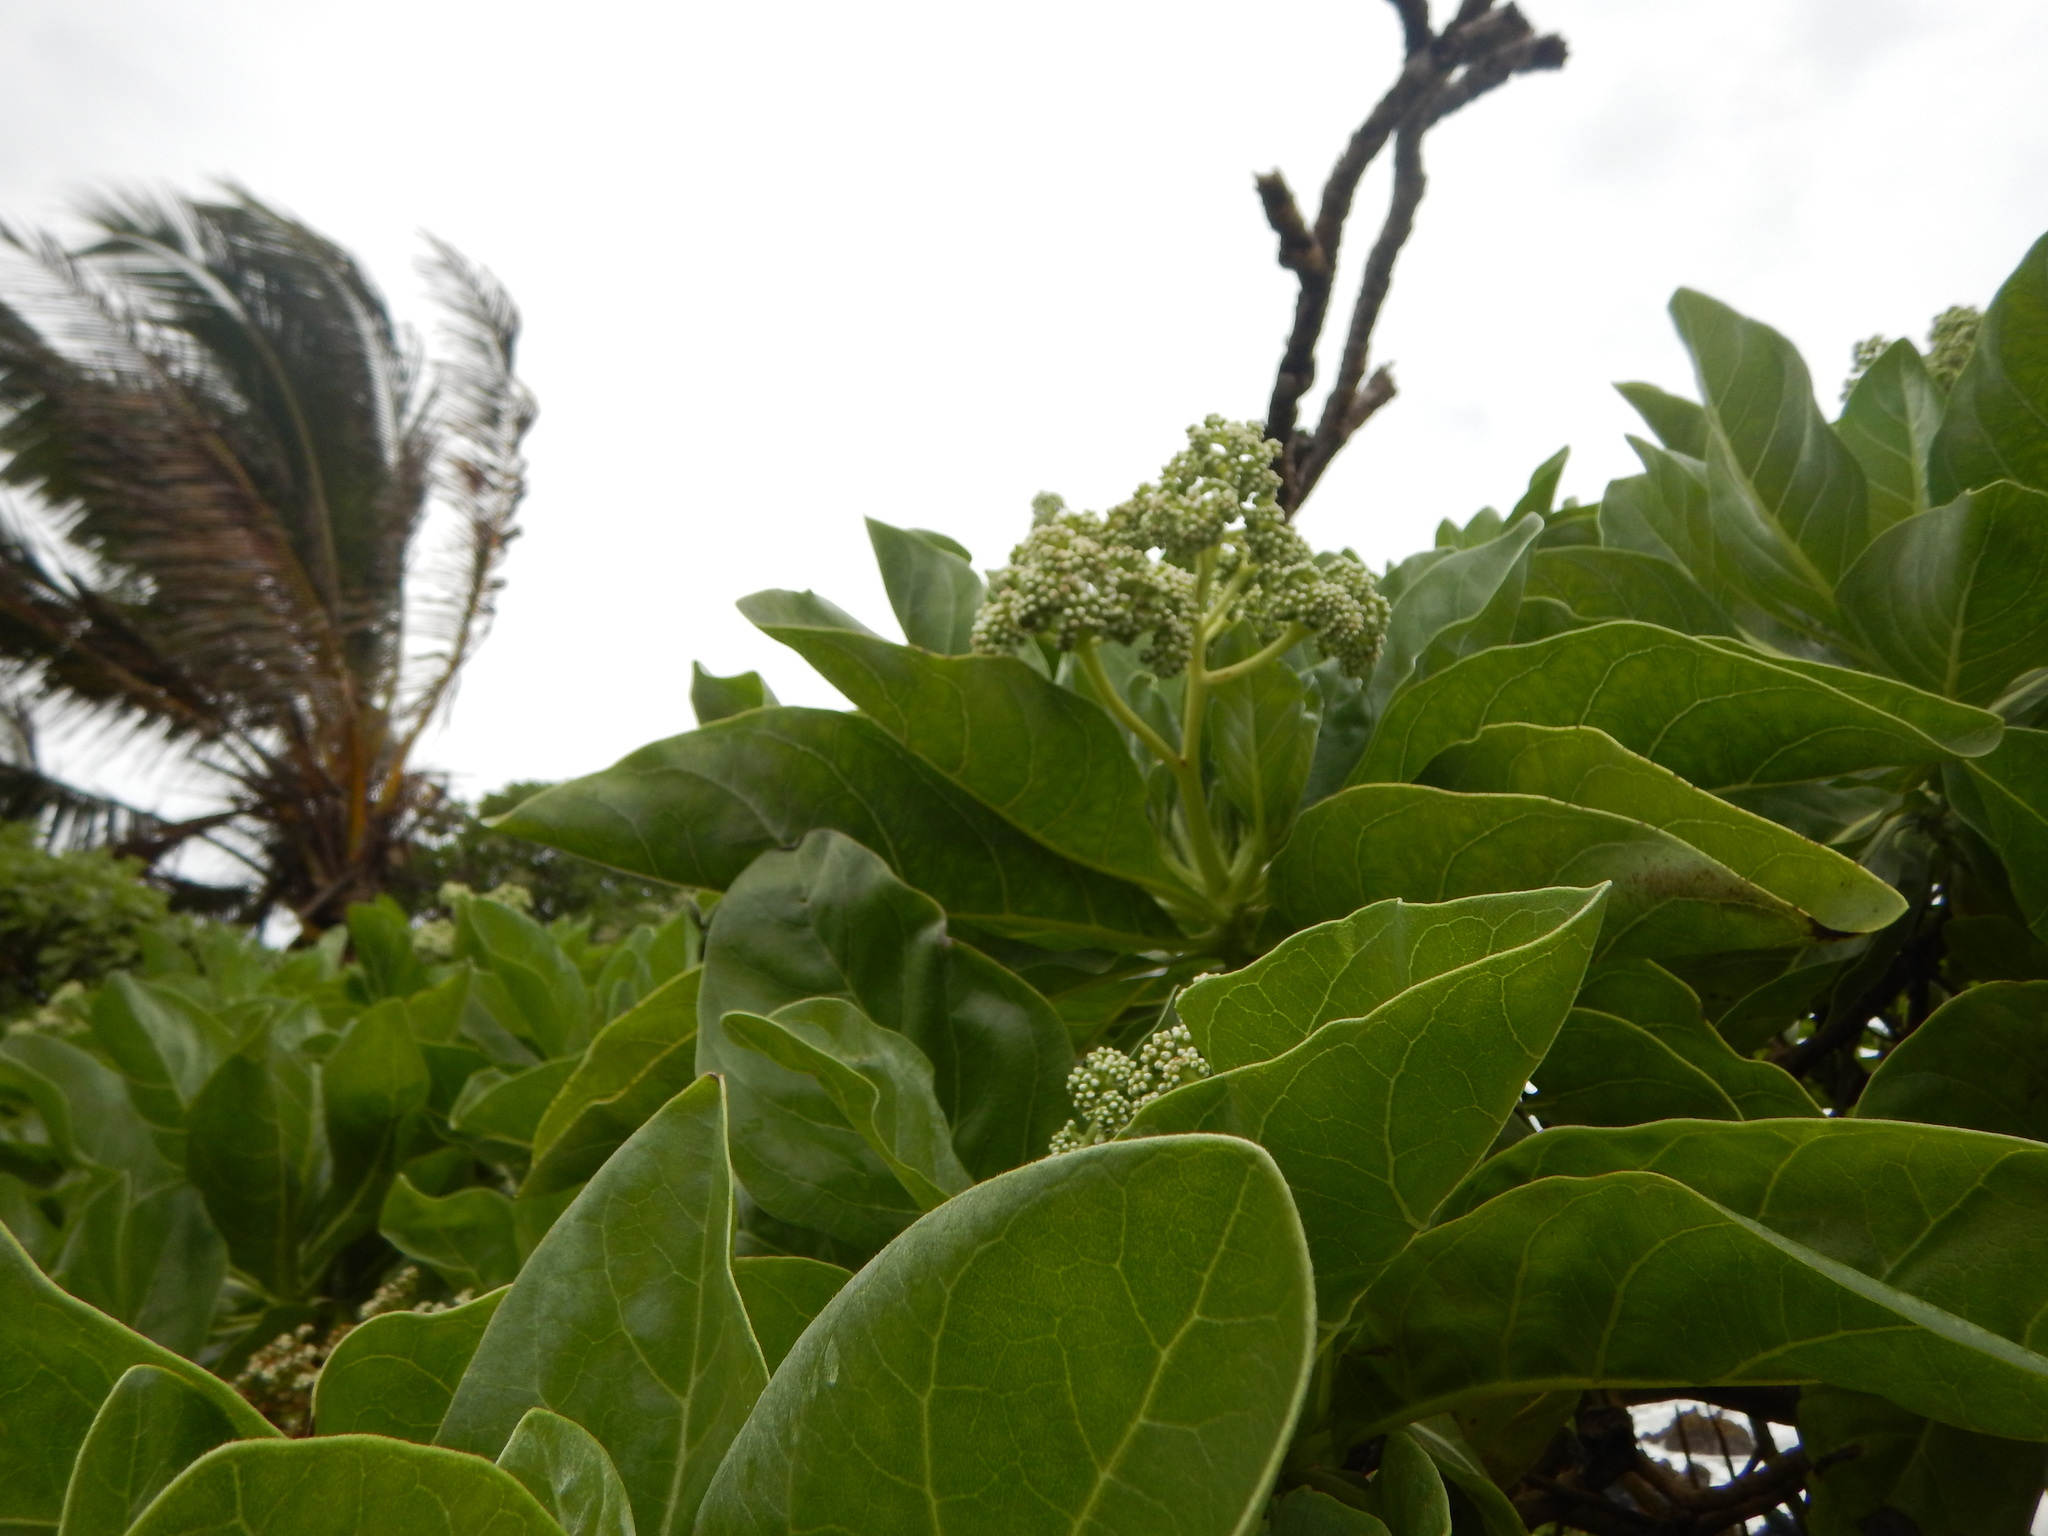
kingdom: Plantae
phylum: Tracheophyta
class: Magnoliopsida
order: Boraginales
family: Heliotropiaceae
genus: Heliotropium
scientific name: Heliotropium velutinum
